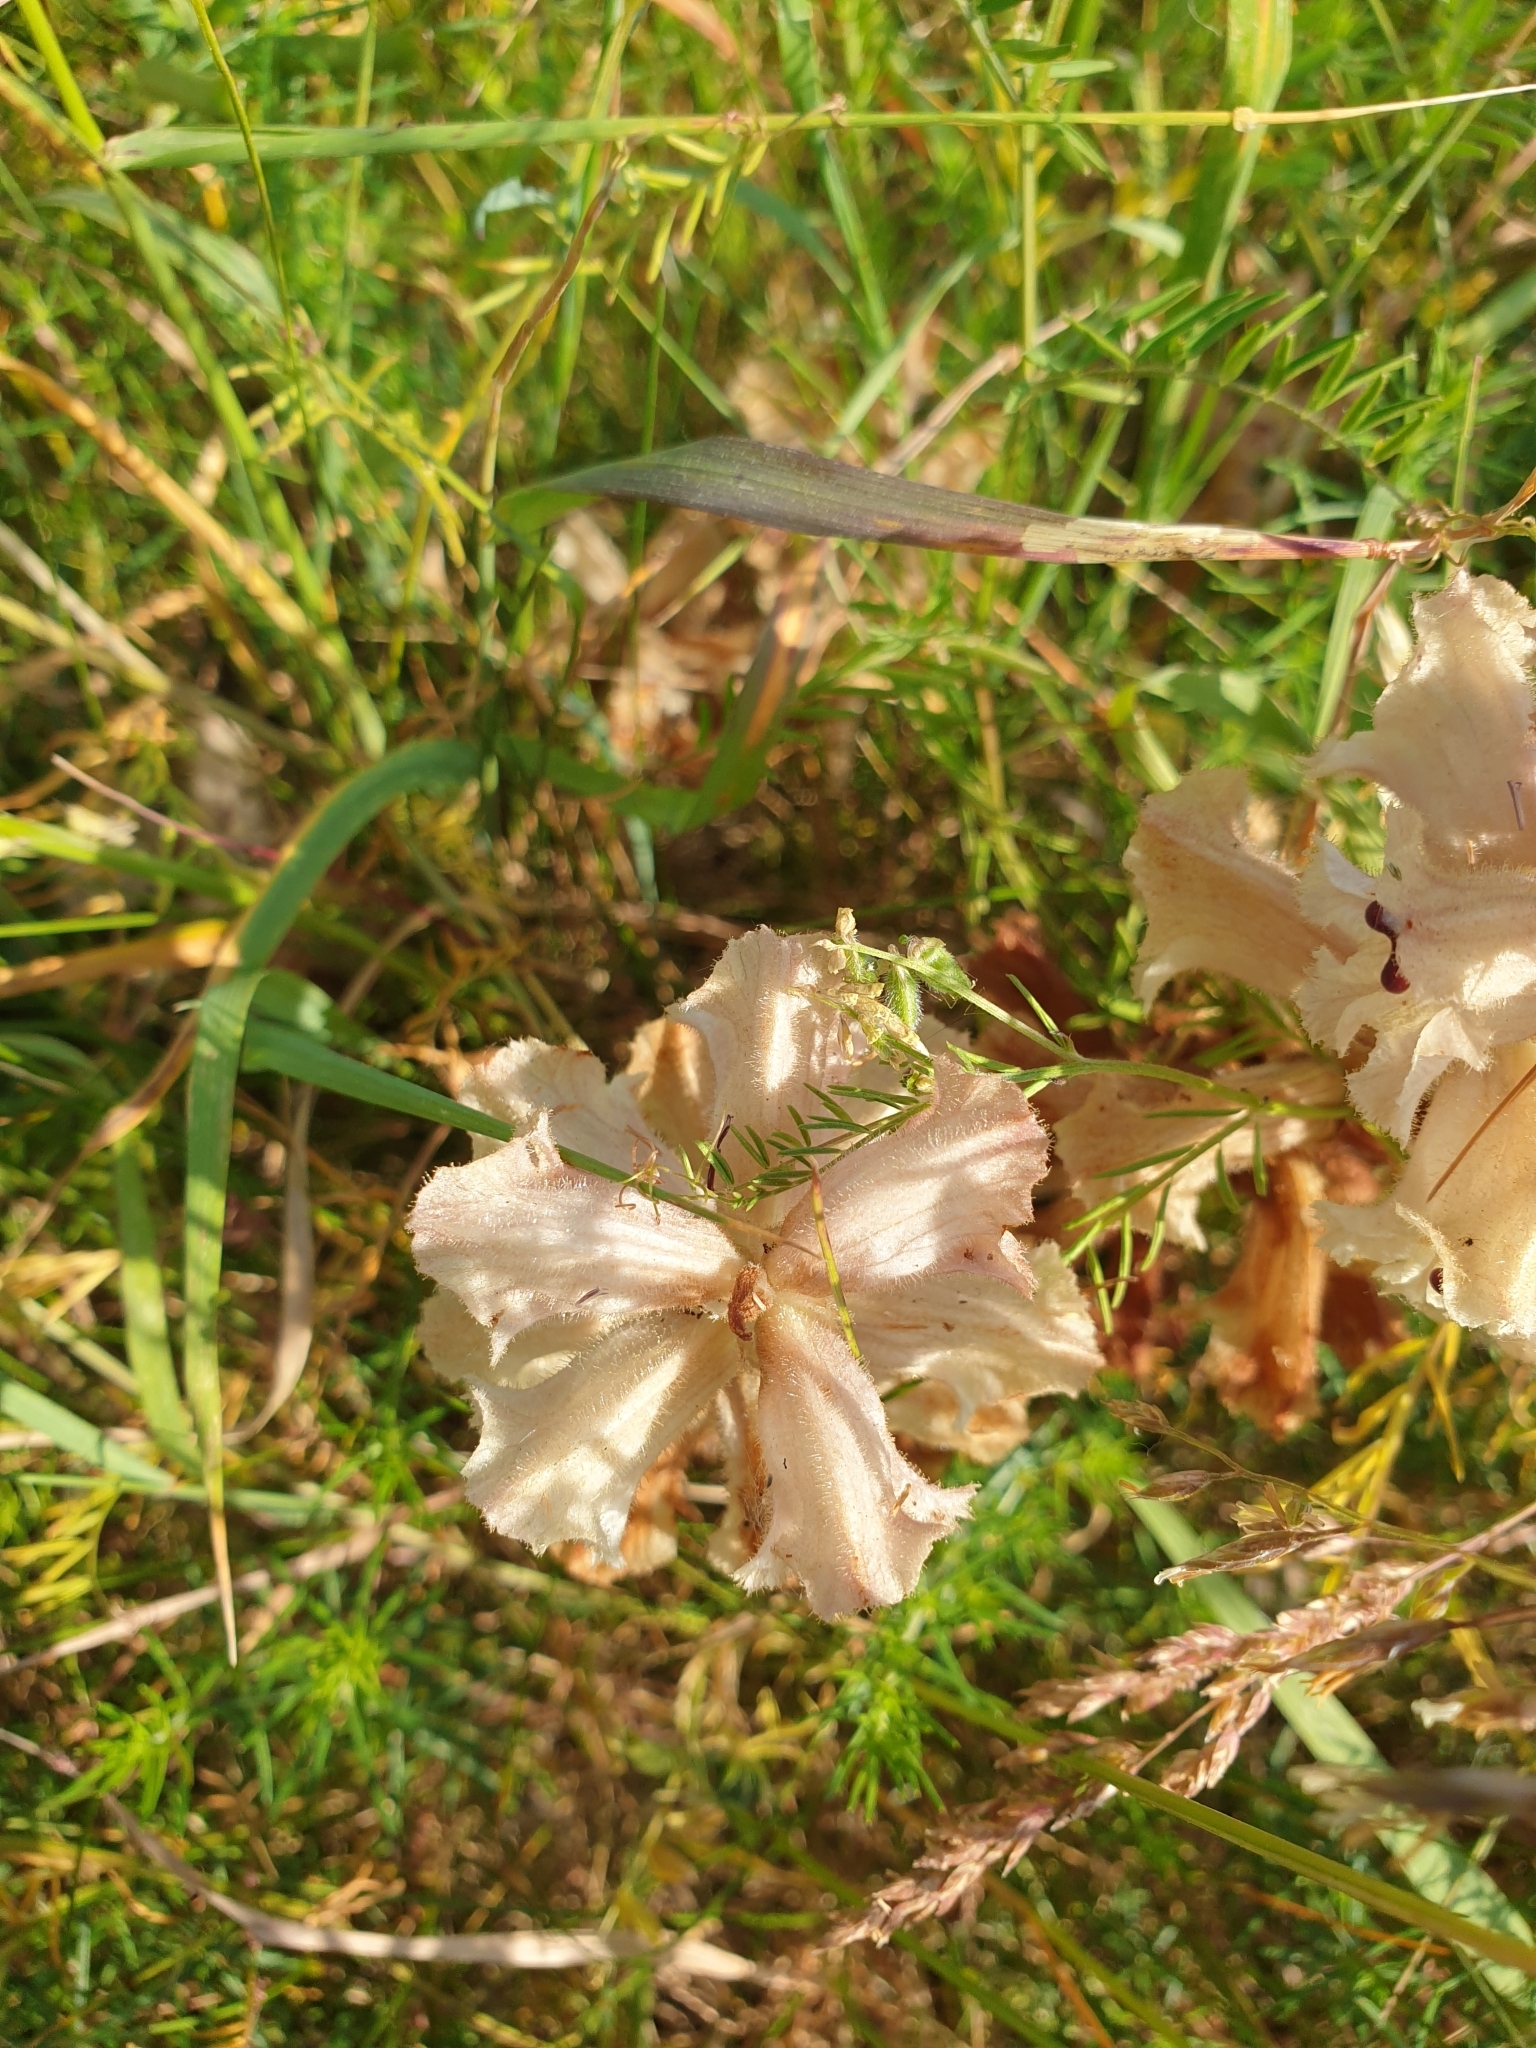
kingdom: Plantae
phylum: Tracheophyta
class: Magnoliopsida
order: Lamiales
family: Orobanchaceae
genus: Orobanche
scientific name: Orobanche caryophyllacea
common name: Bedstraw broomrape
